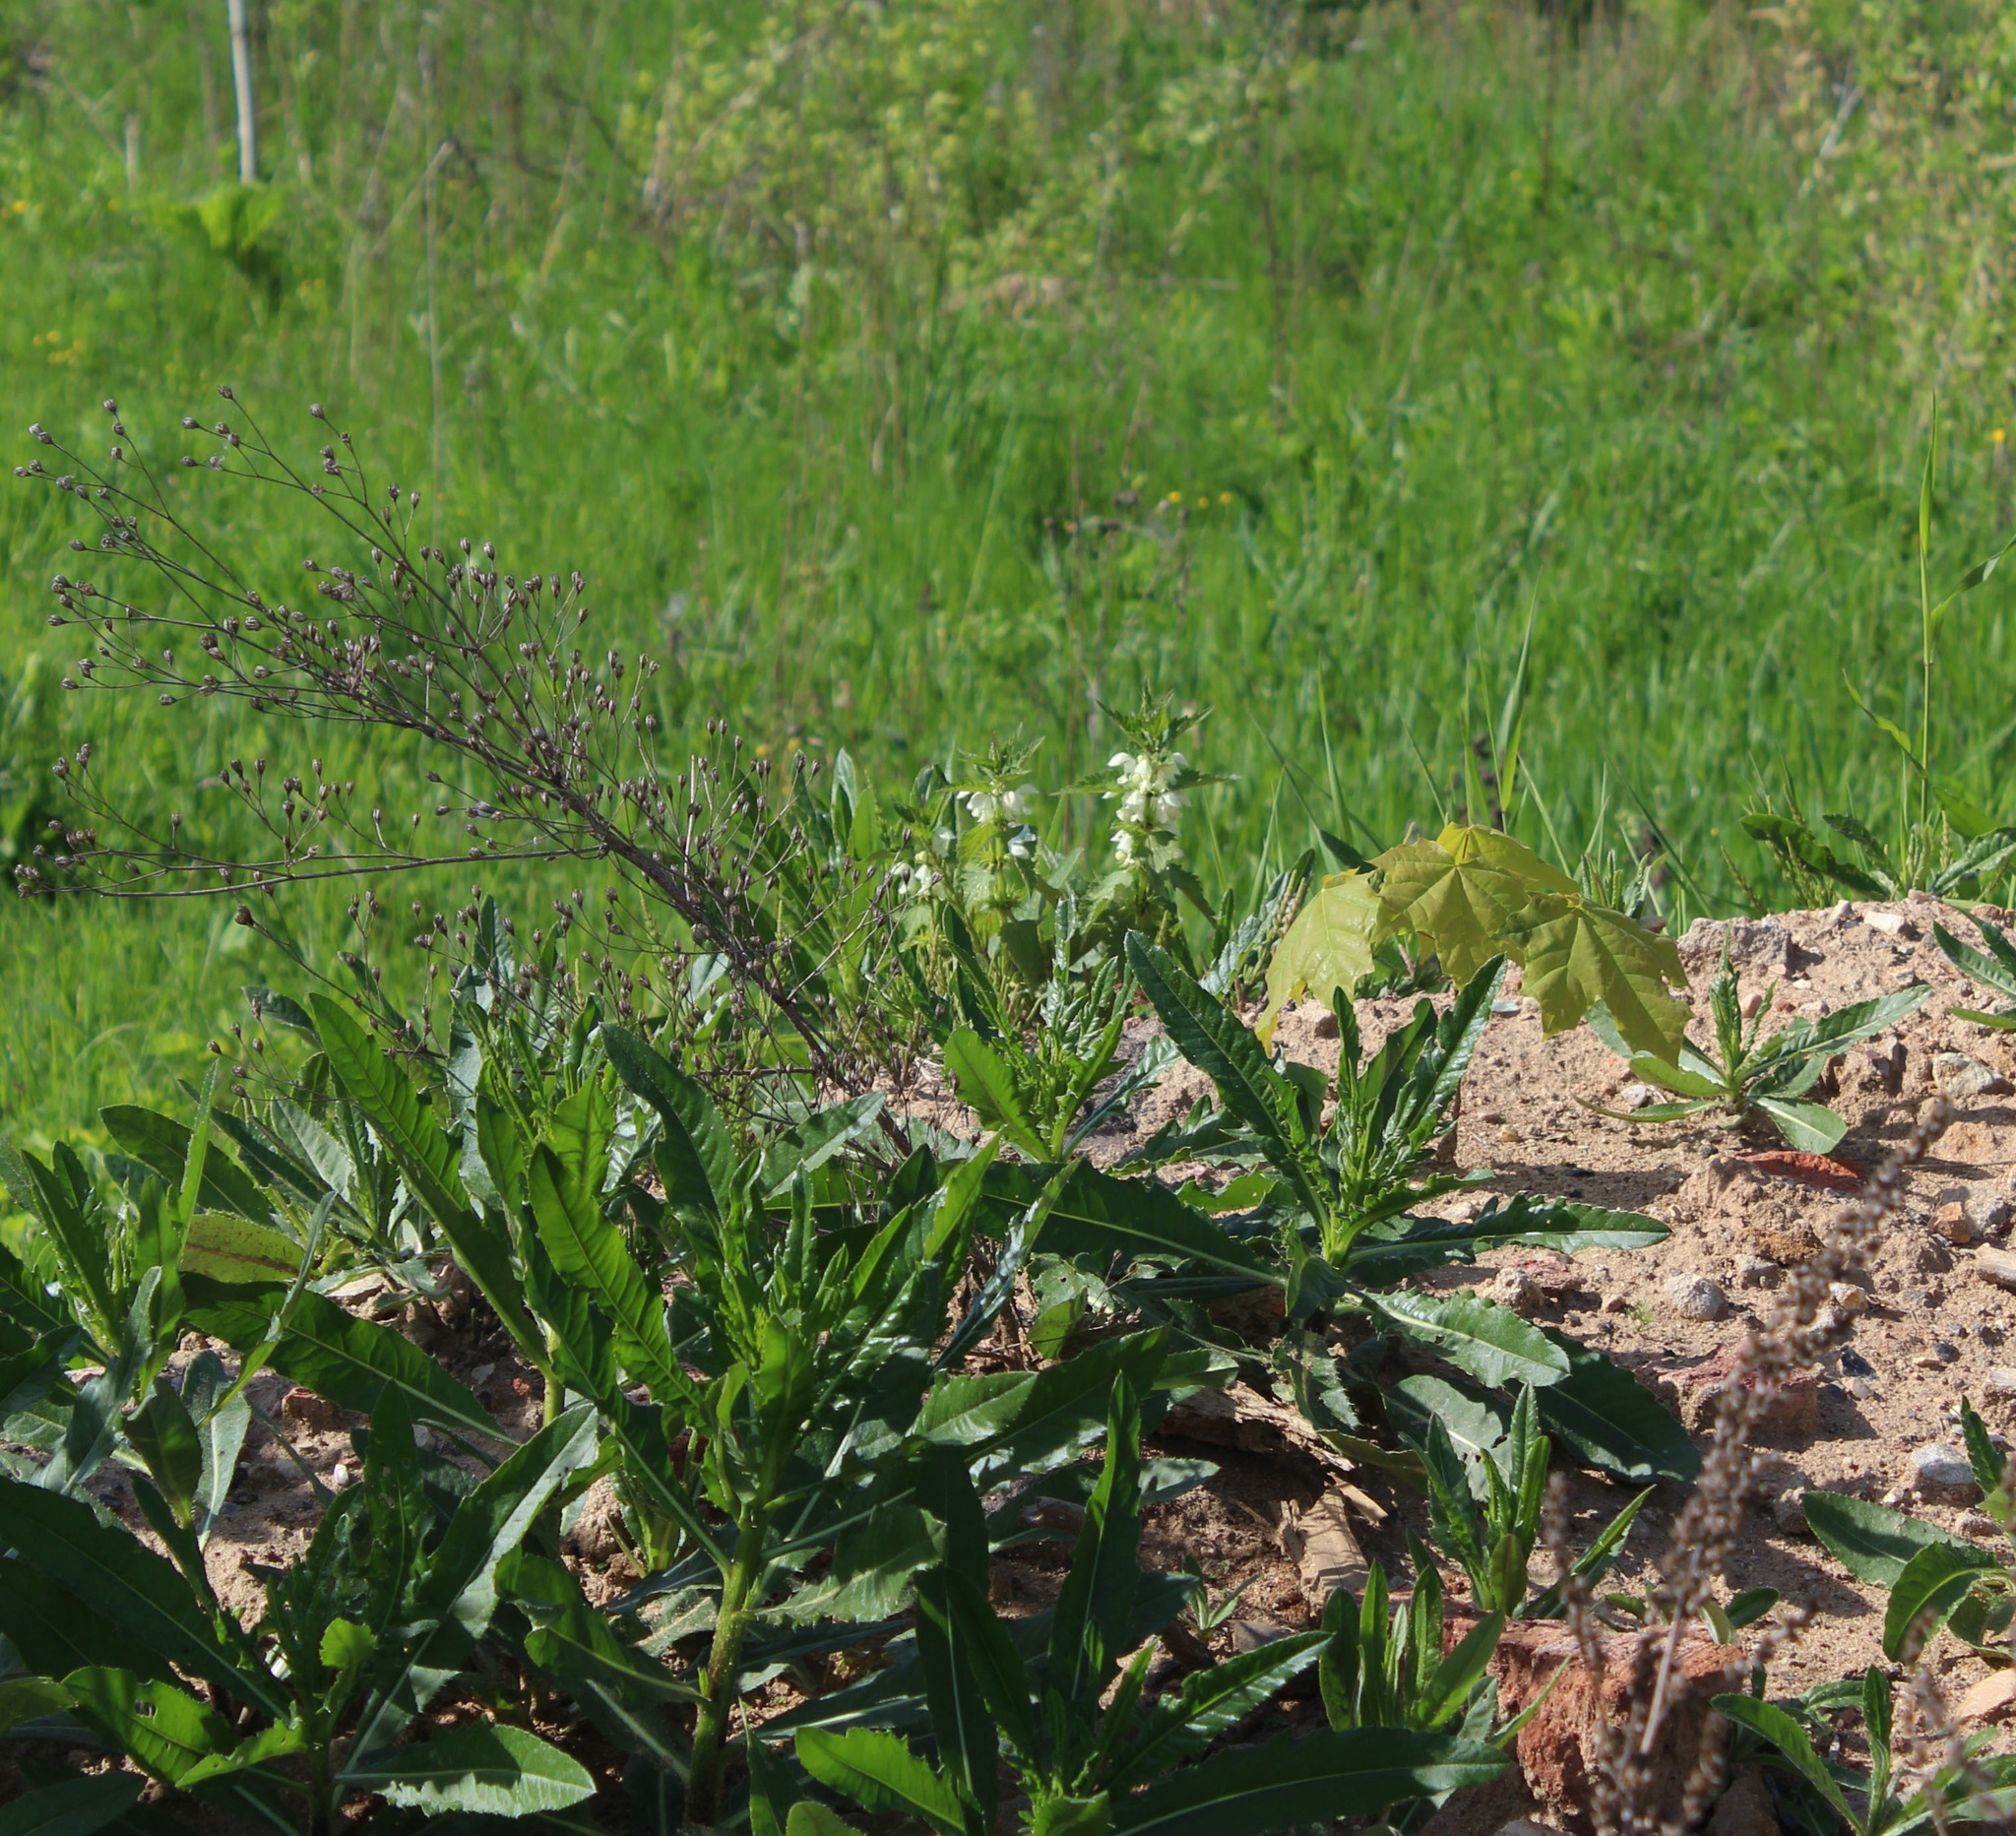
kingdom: Plantae
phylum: Tracheophyta
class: Magnoliopsida
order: Lamiales
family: Lamiaceae
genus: Lamium
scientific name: Lamium album
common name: White dead-nettle
